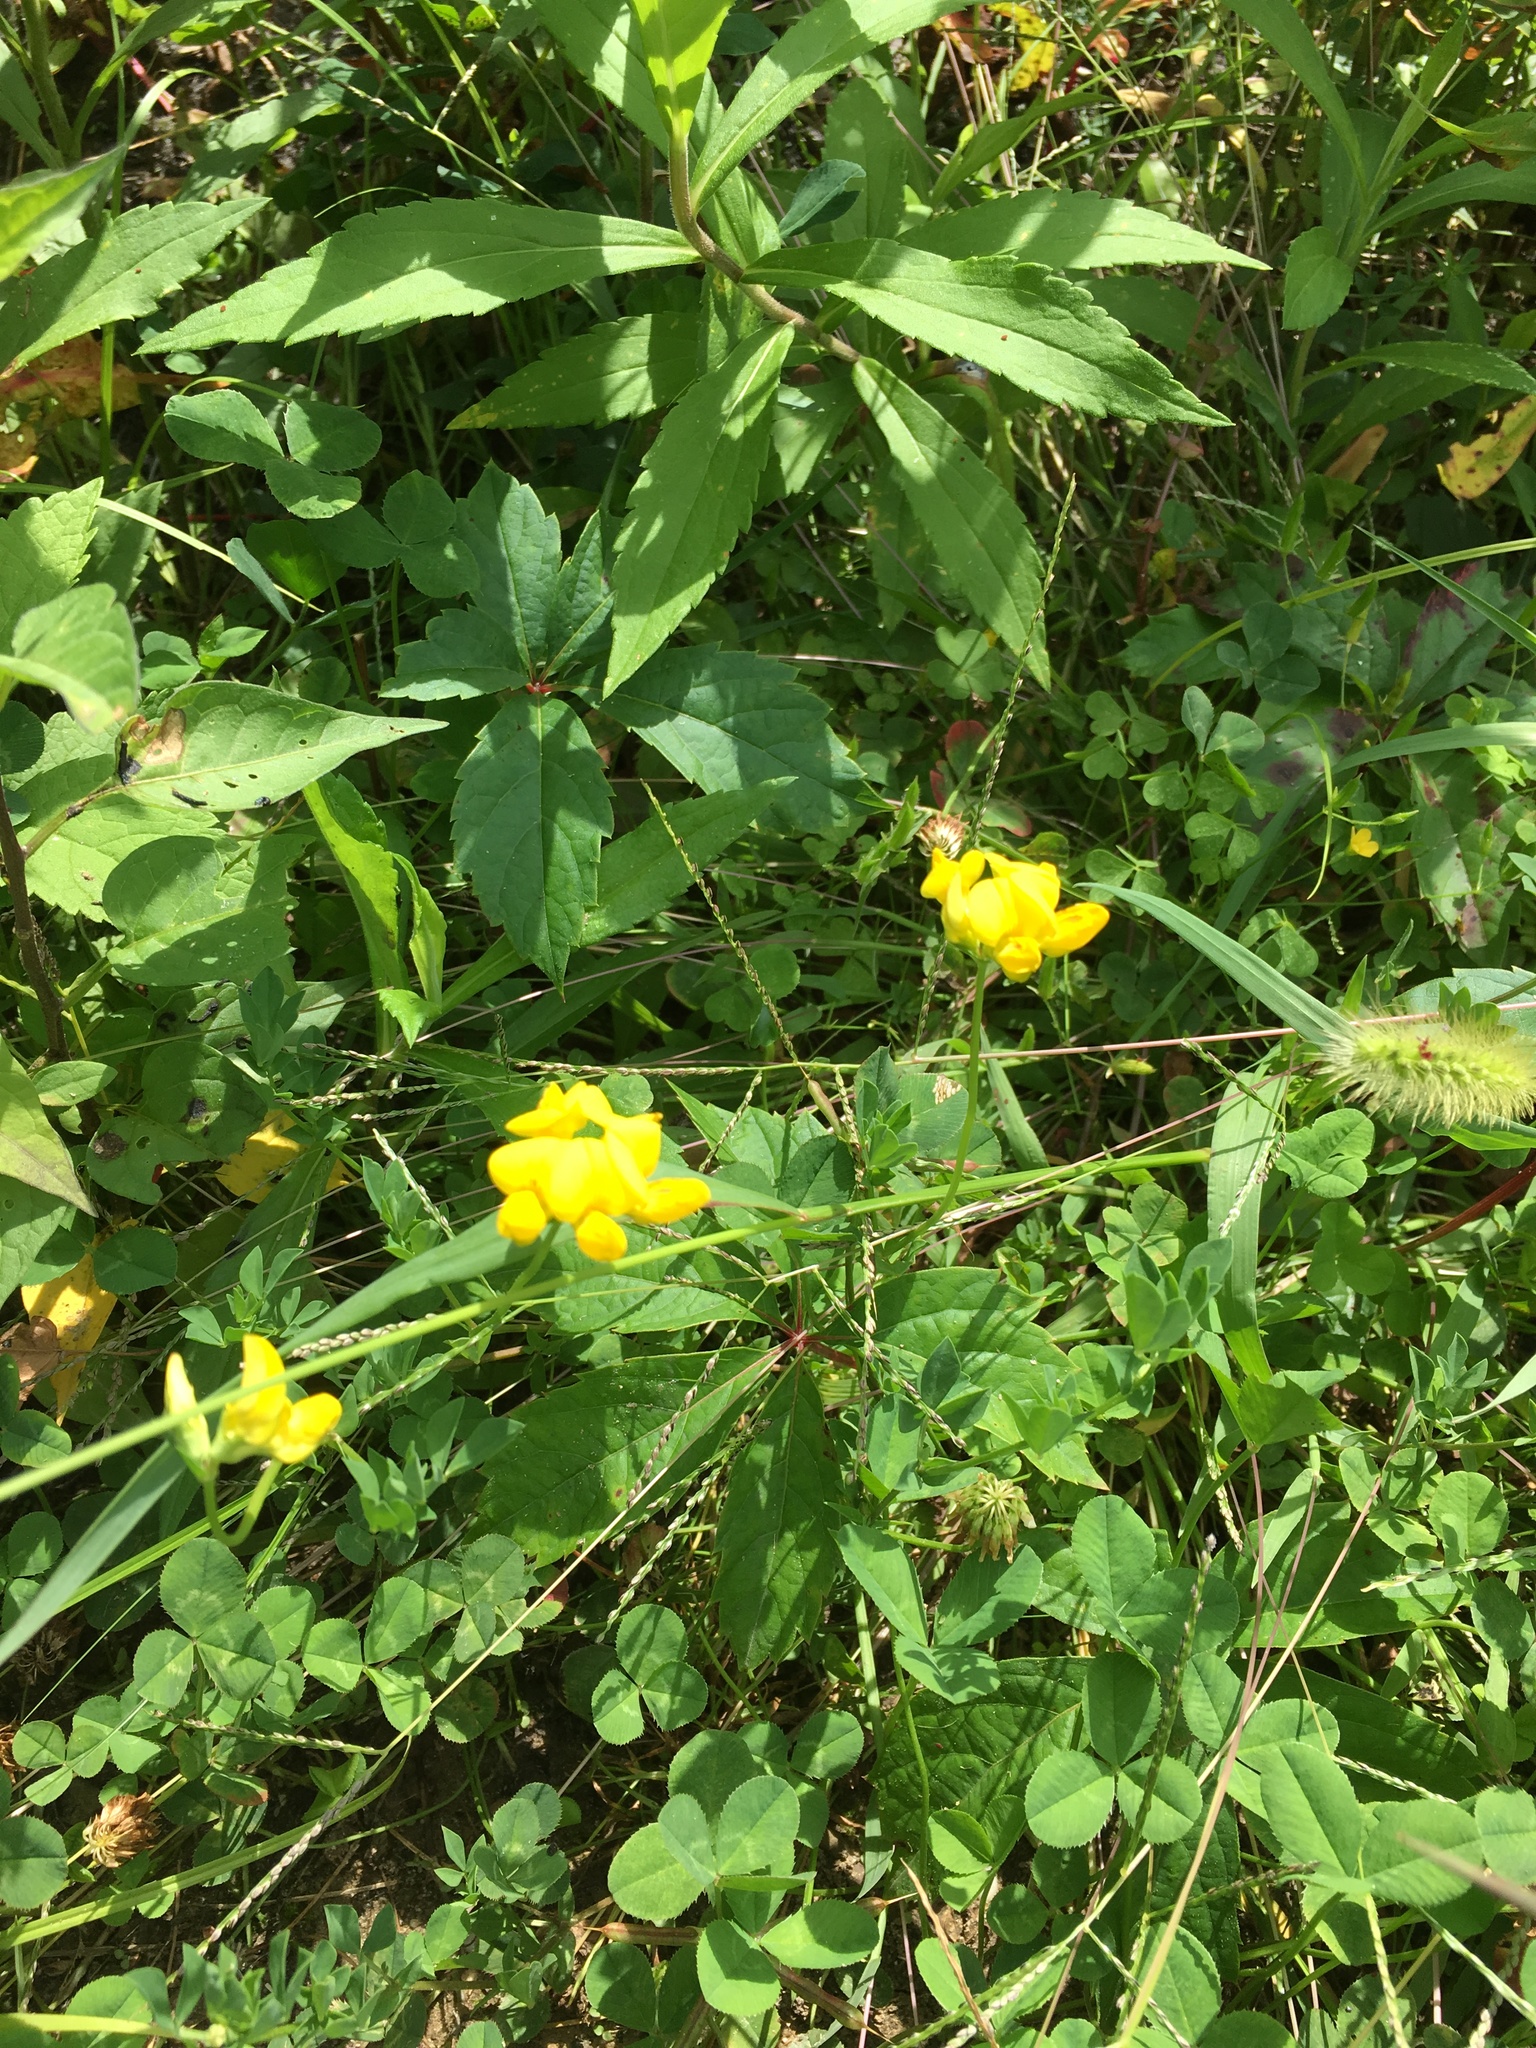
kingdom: Plantae
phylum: Tracheophyta
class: Magnoliopsida
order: Fabales
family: Fabaceae
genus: Lotus
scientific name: Lotus corniculatus
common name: Common bird's-foot-trefoil
